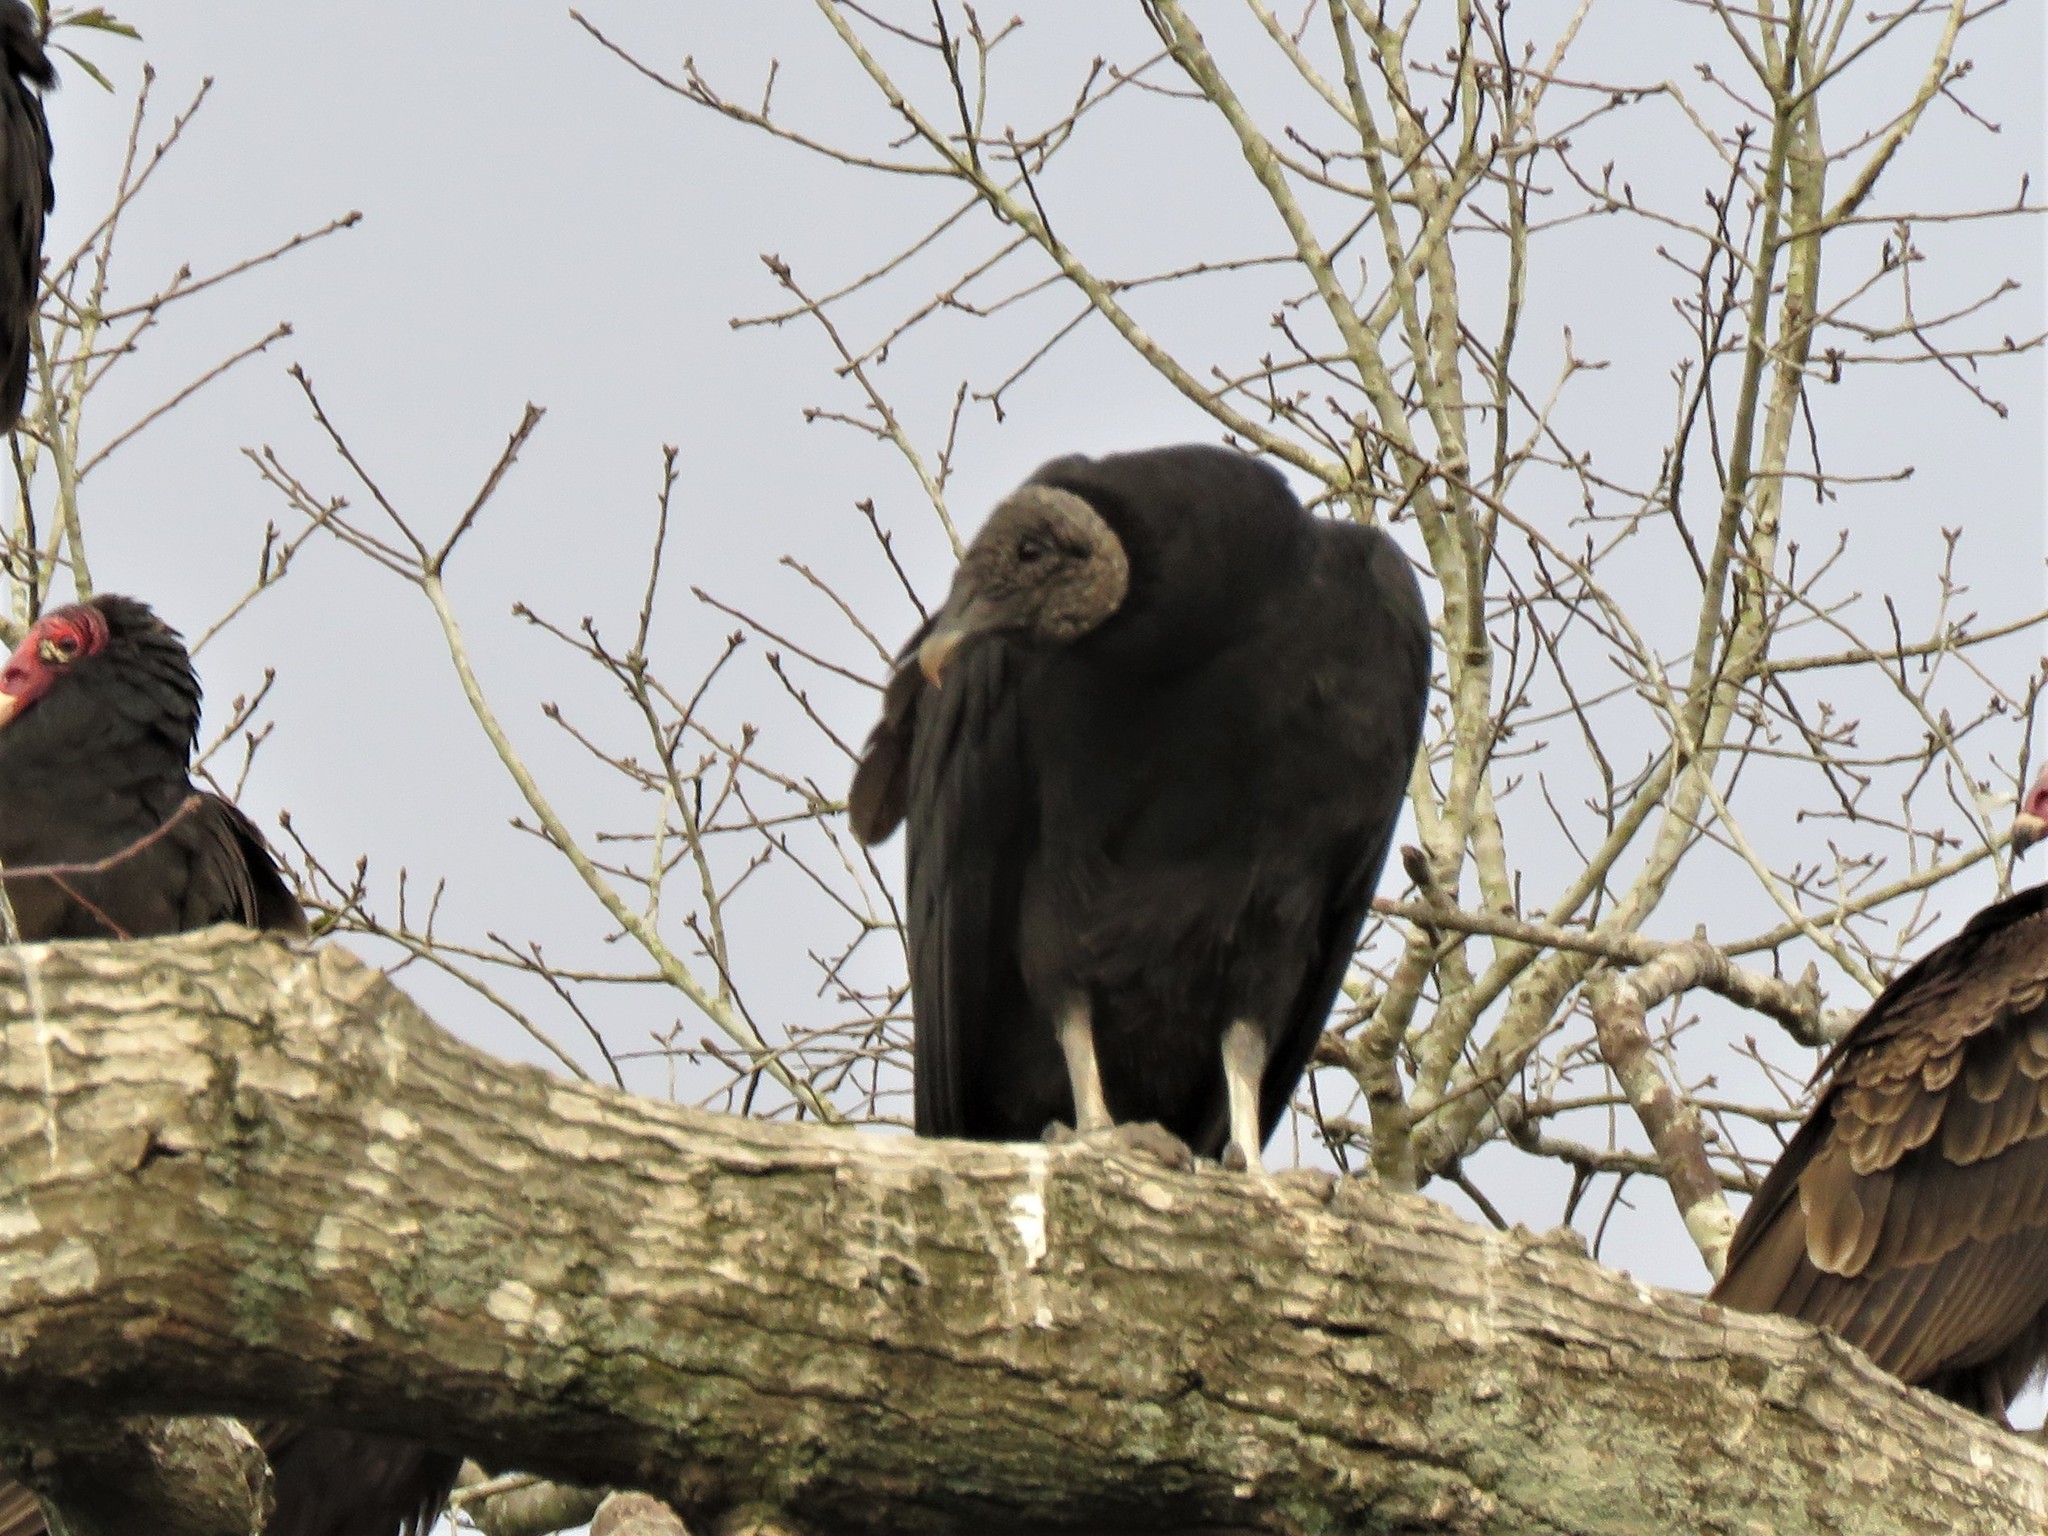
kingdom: Animalia
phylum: Chordata
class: Aves
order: Accipitriformes
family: Cathartidae
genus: Coragyps
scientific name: Coragyps atratus
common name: Black vulture
